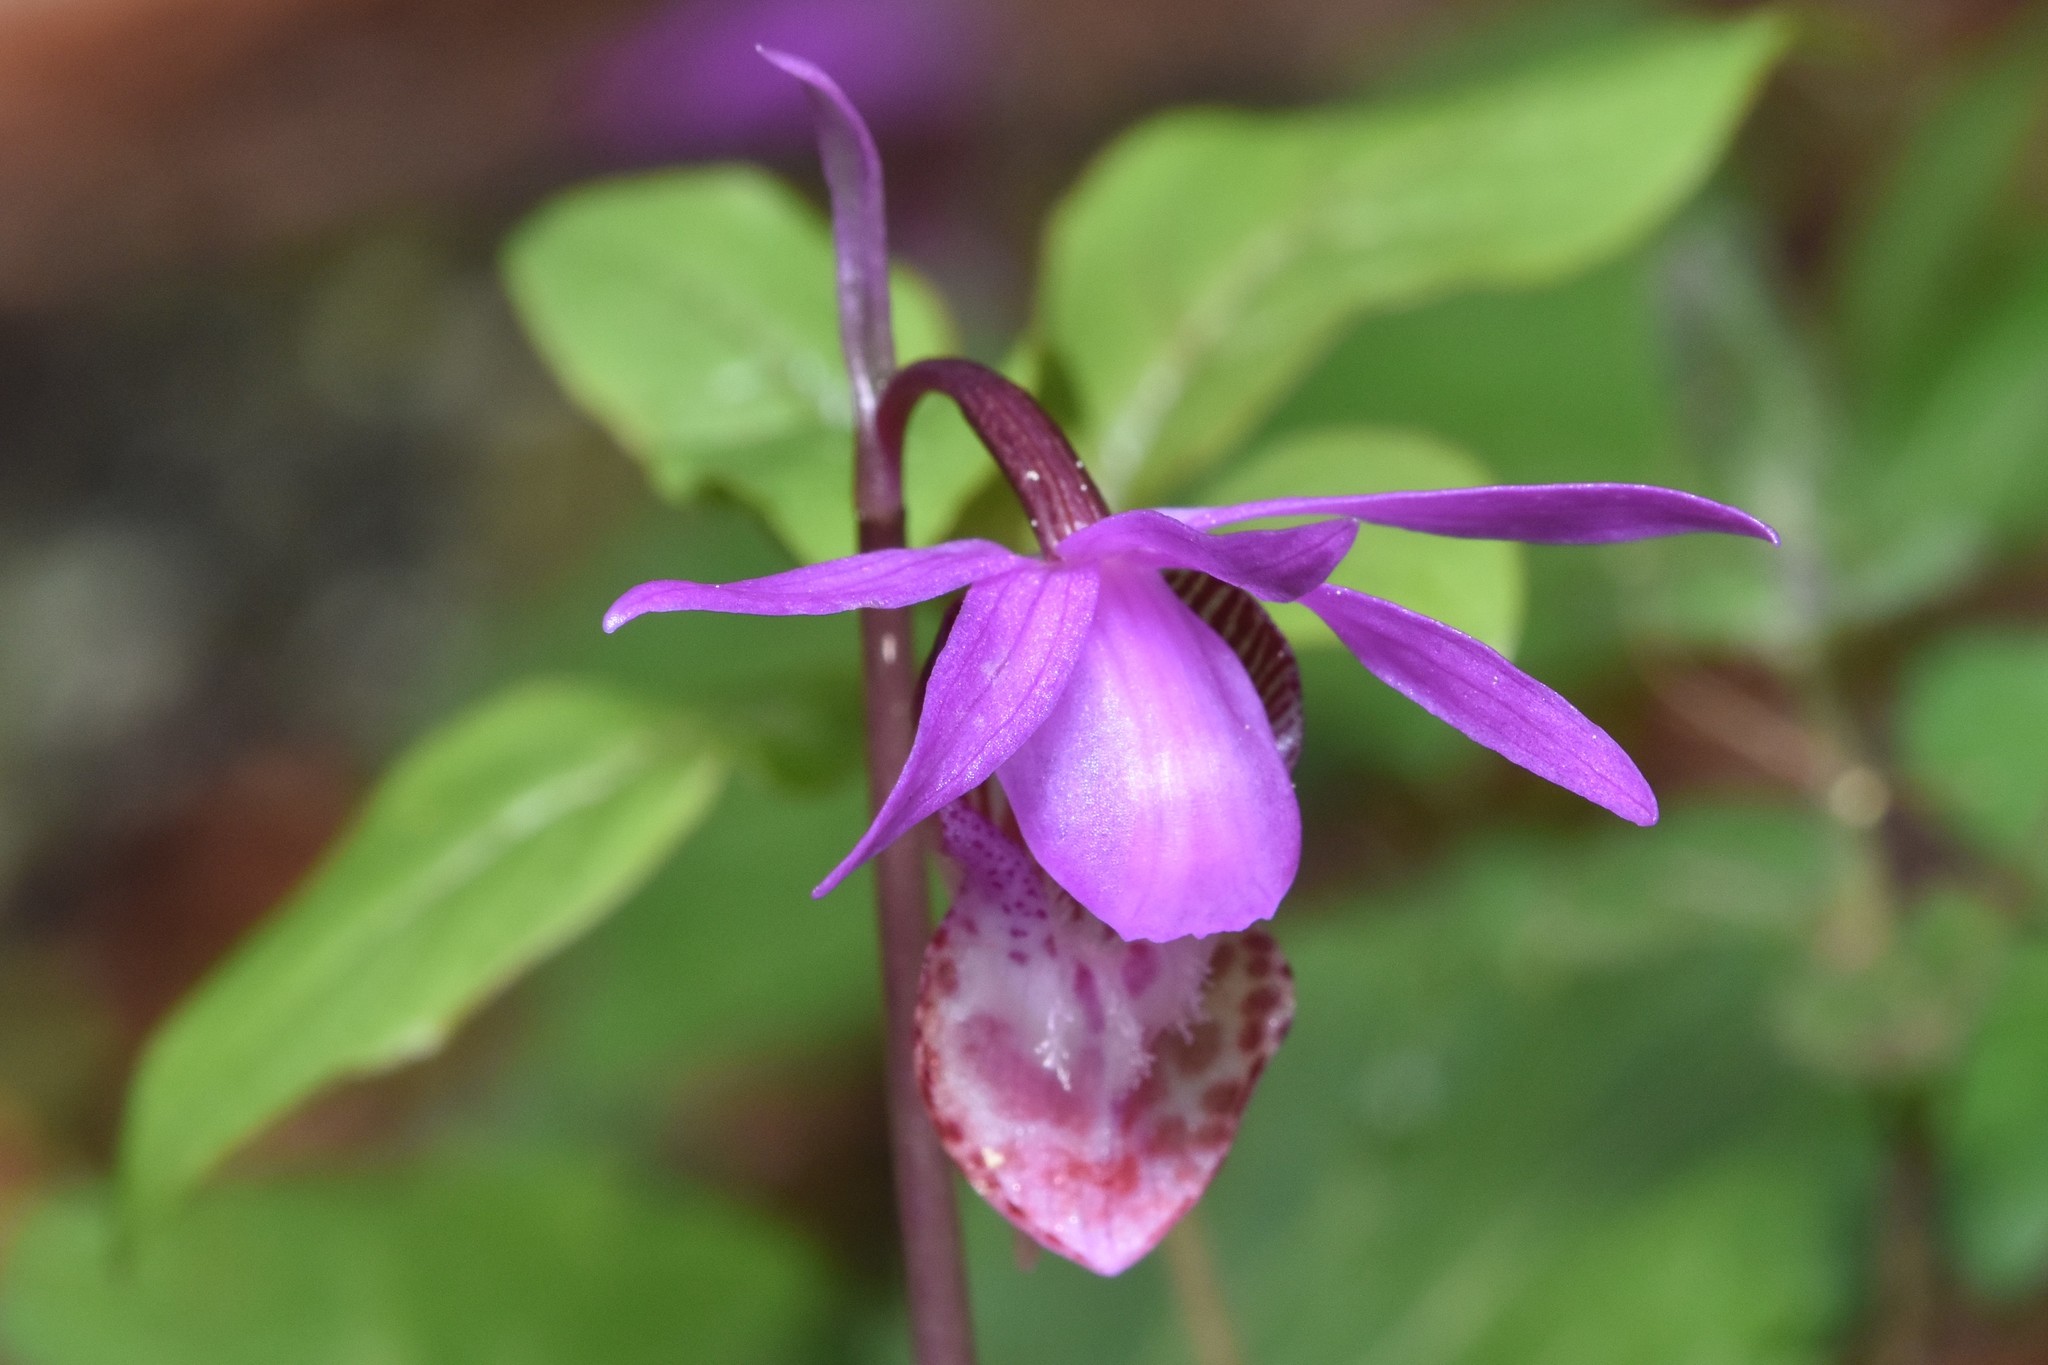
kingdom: Plantae
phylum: Tracheophyta
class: Liliopsida
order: Asparagales
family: Orchidaceae
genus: Calypso
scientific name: Calypso bulbosa
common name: Calypso
